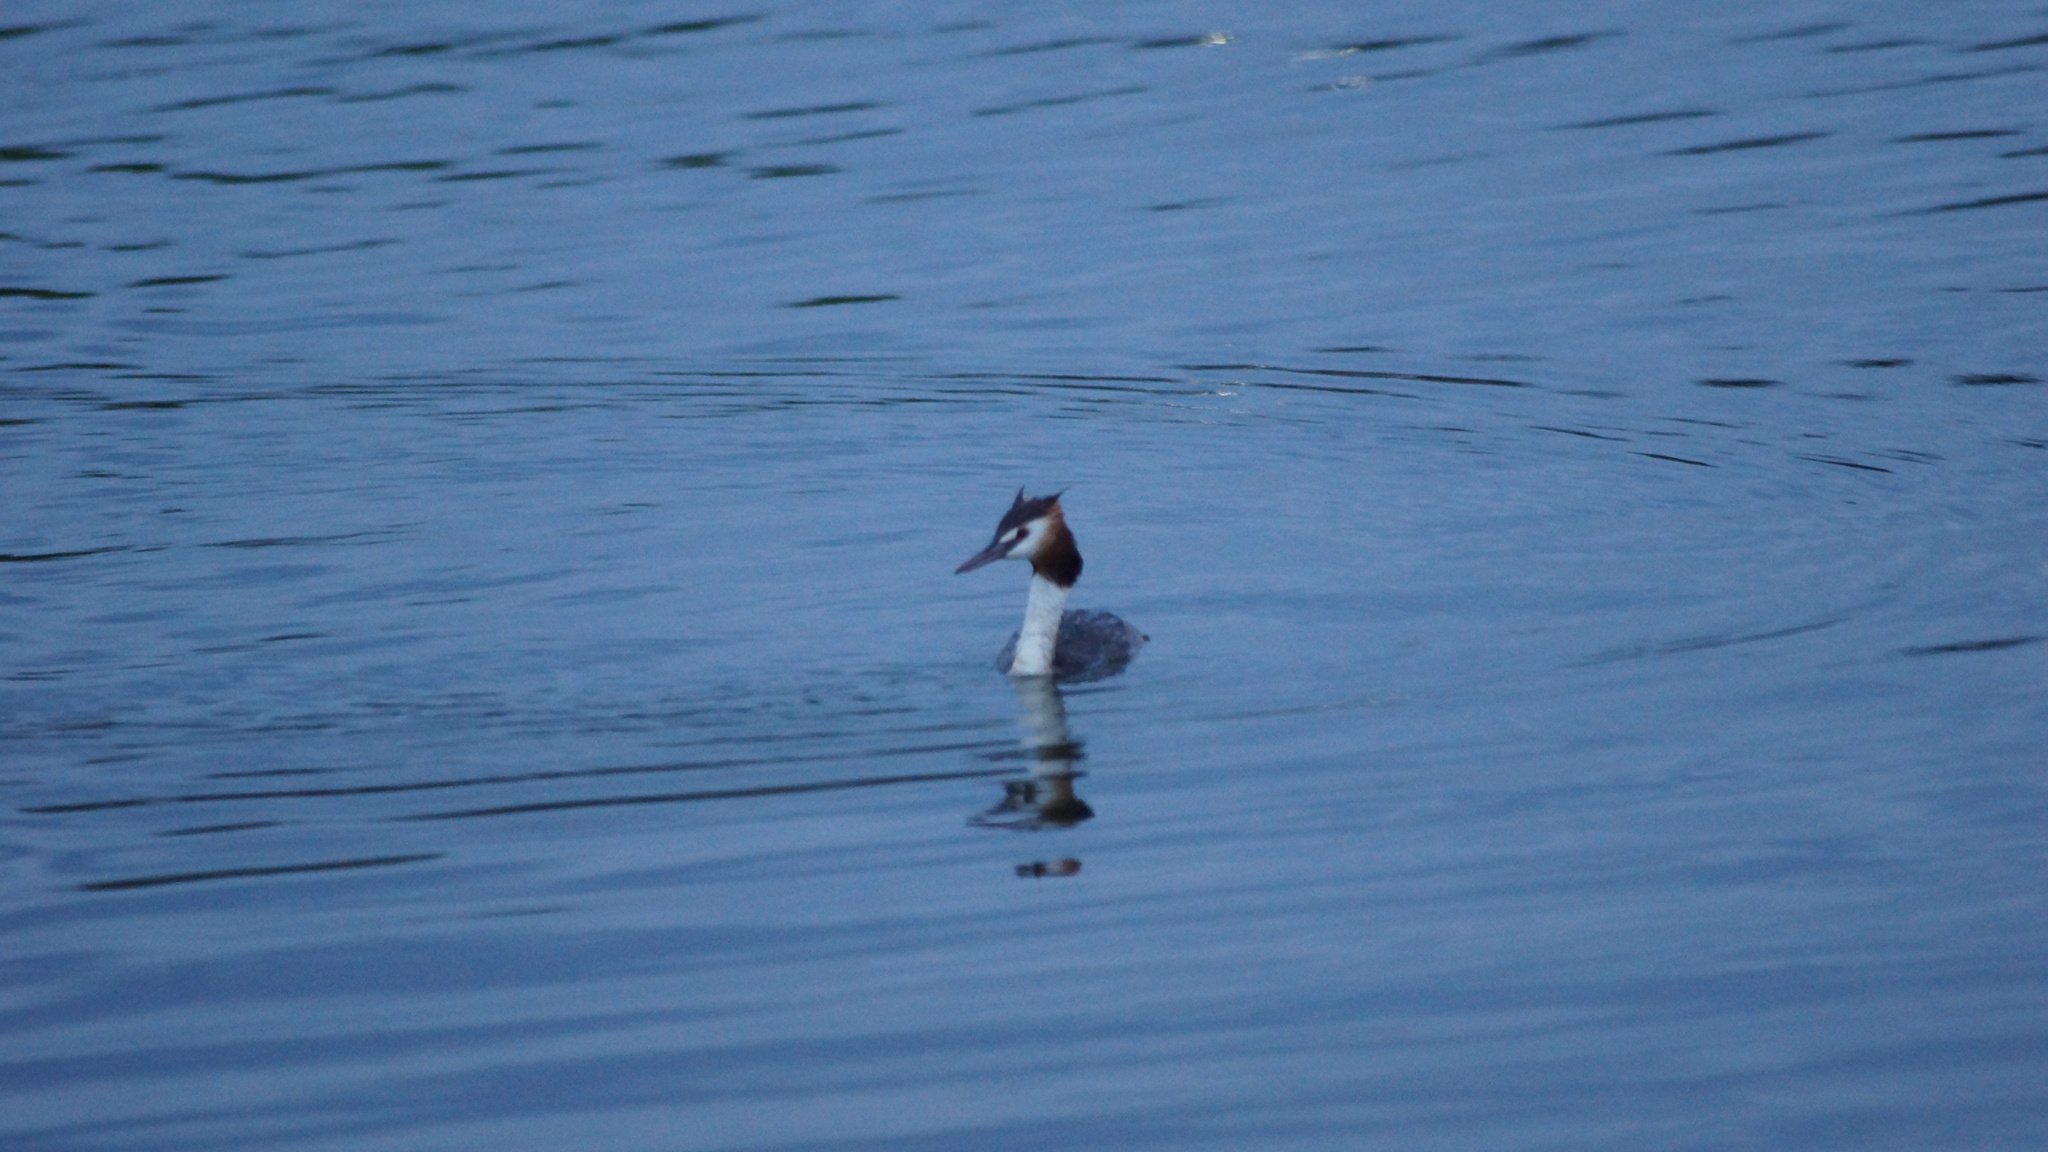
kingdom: Animalia
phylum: Chordata
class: Aves
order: Podicipediformes
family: Podicipedidae
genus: Podiceps
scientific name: Podiceps cristatus
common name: Great crested grebe
